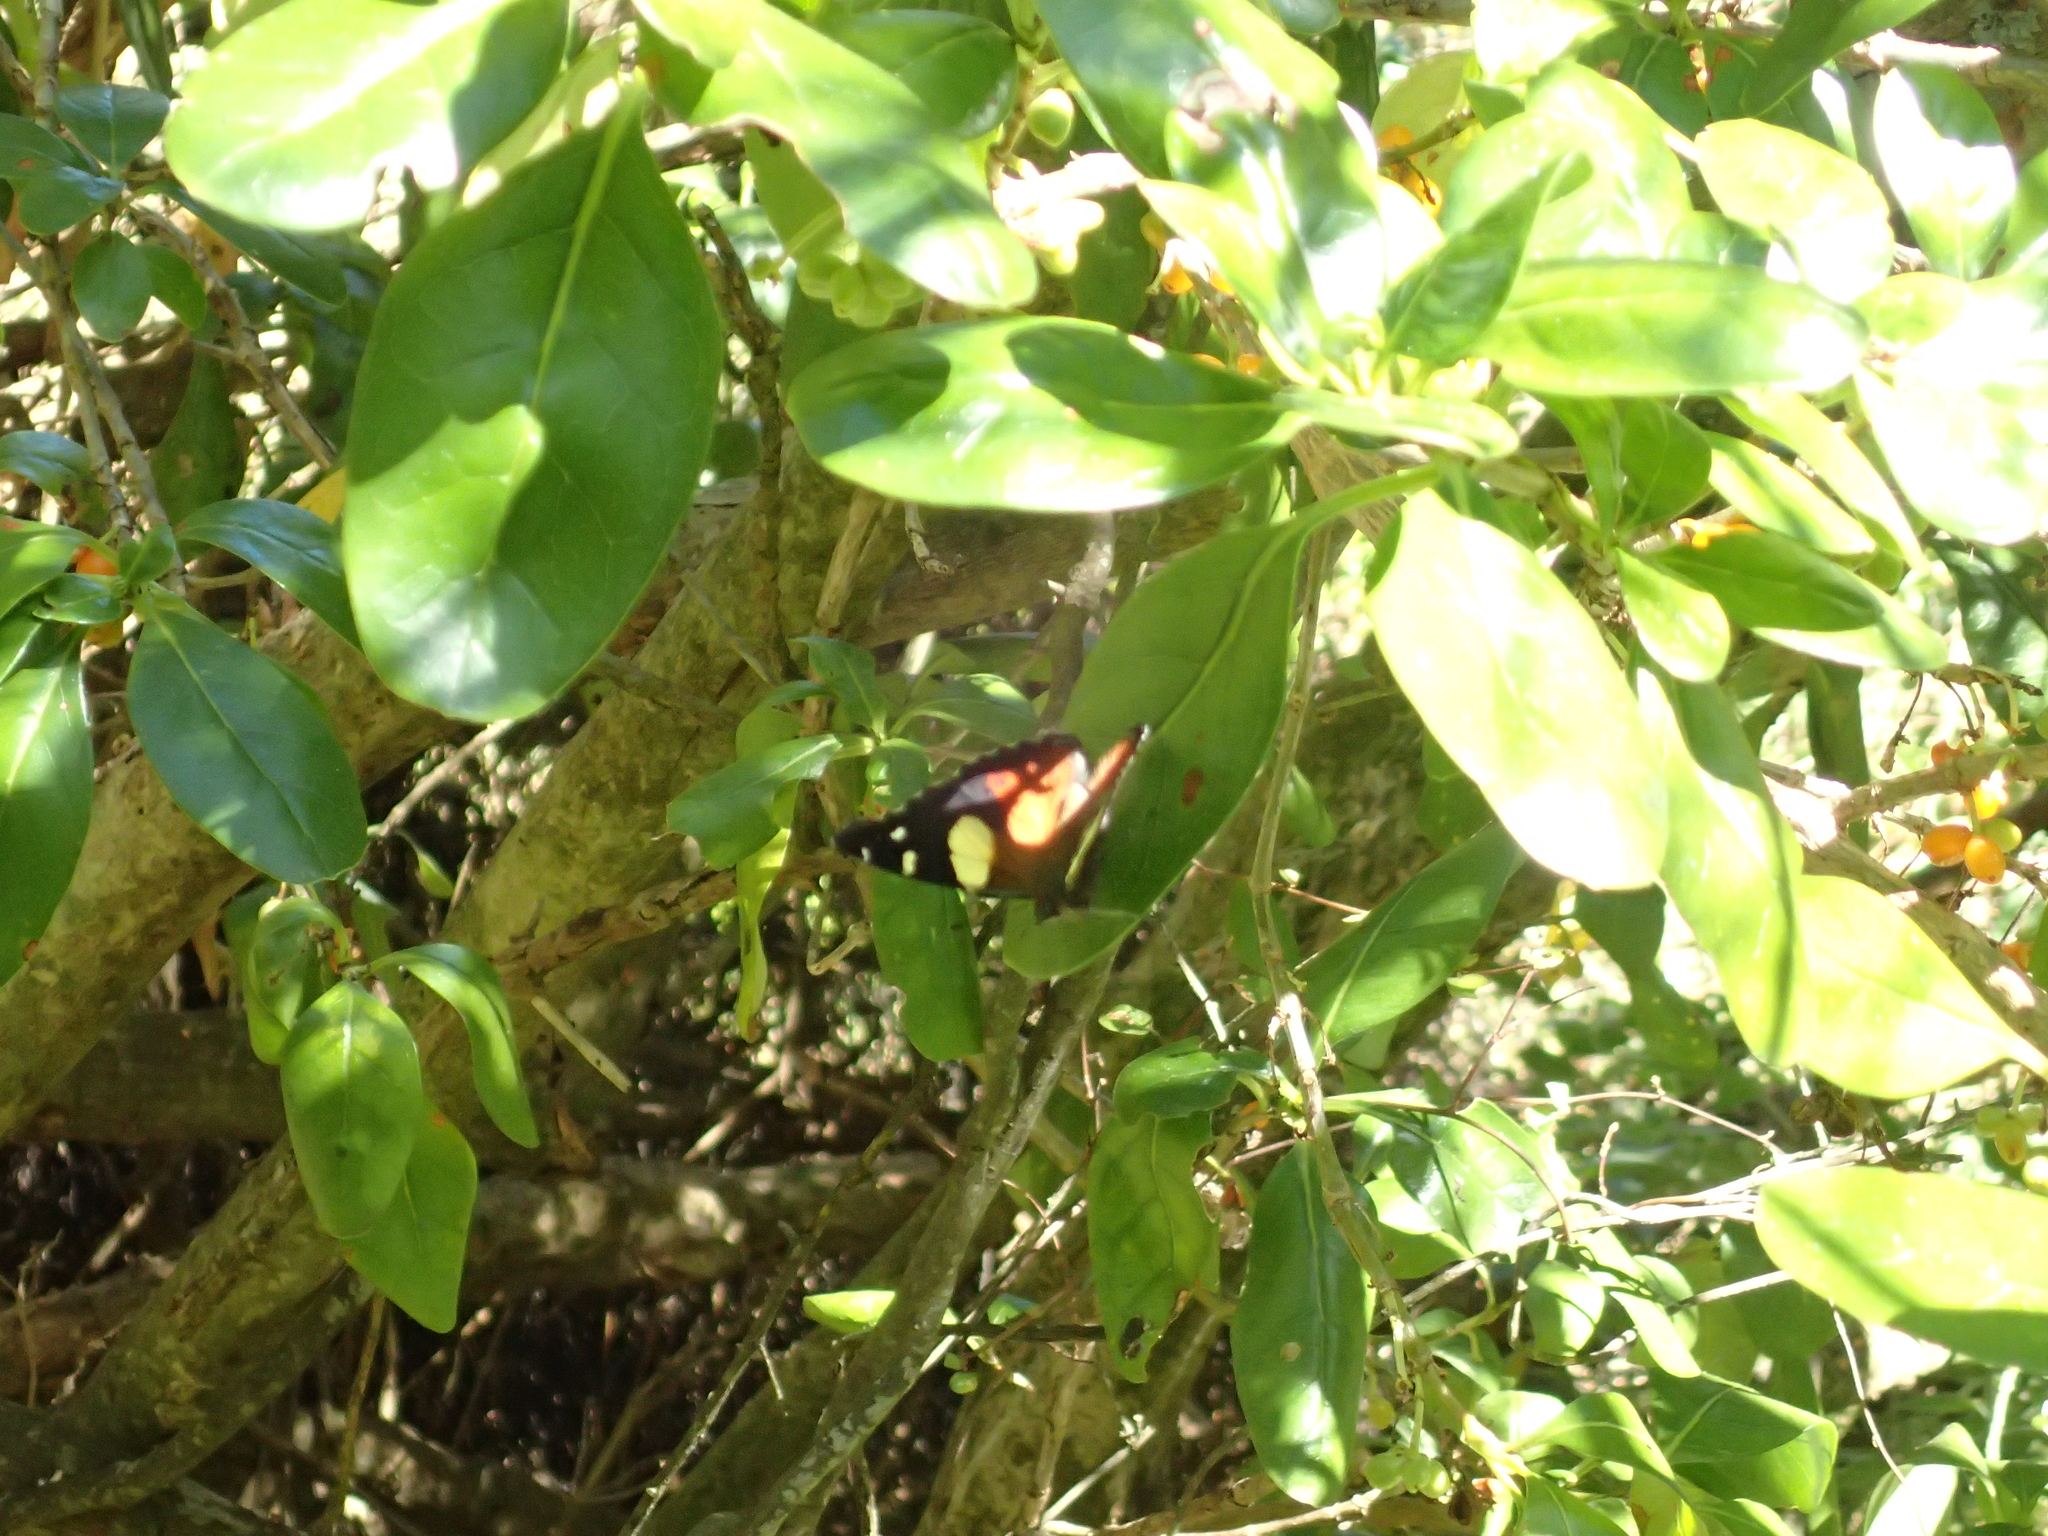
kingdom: Animalia
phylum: Arthropoda
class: Insecta
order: Lepidoptera
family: Nymphalidae
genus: Vanessa
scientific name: Vanessa itea
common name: Yellow admiral
